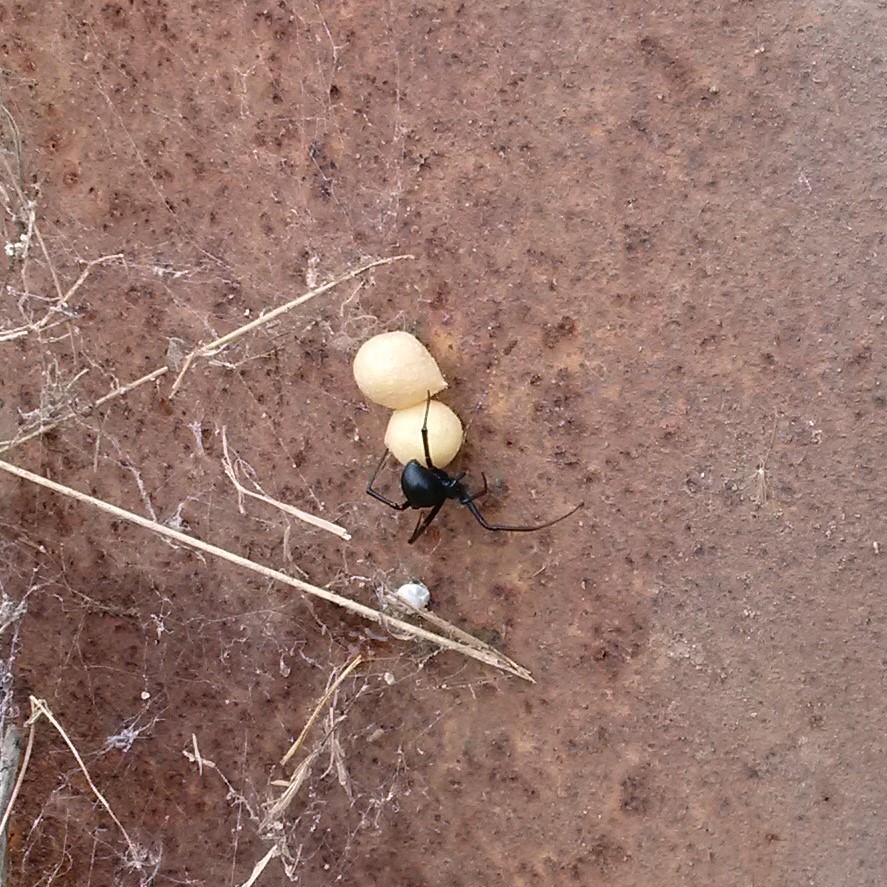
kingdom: Animalia
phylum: Arthropoda
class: Arachnida
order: Araneae
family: Theridiidae
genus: Latrodectus
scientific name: Latrodectus hesperus
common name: Western black widow
